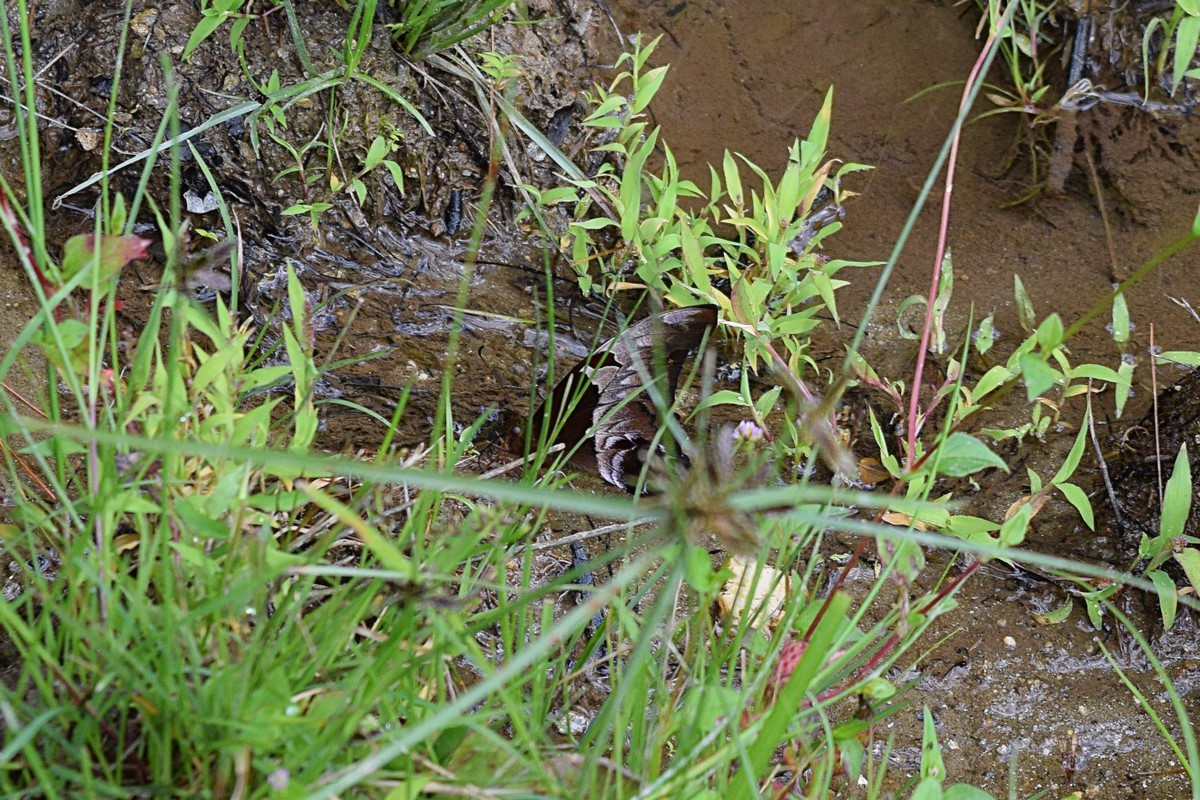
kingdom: Animalia
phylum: Arthropoda
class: Insecta
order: Lepidoptera
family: Papilionidae
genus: Meandrusa
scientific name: Meandrusa lachinus
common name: Brown gorgon
